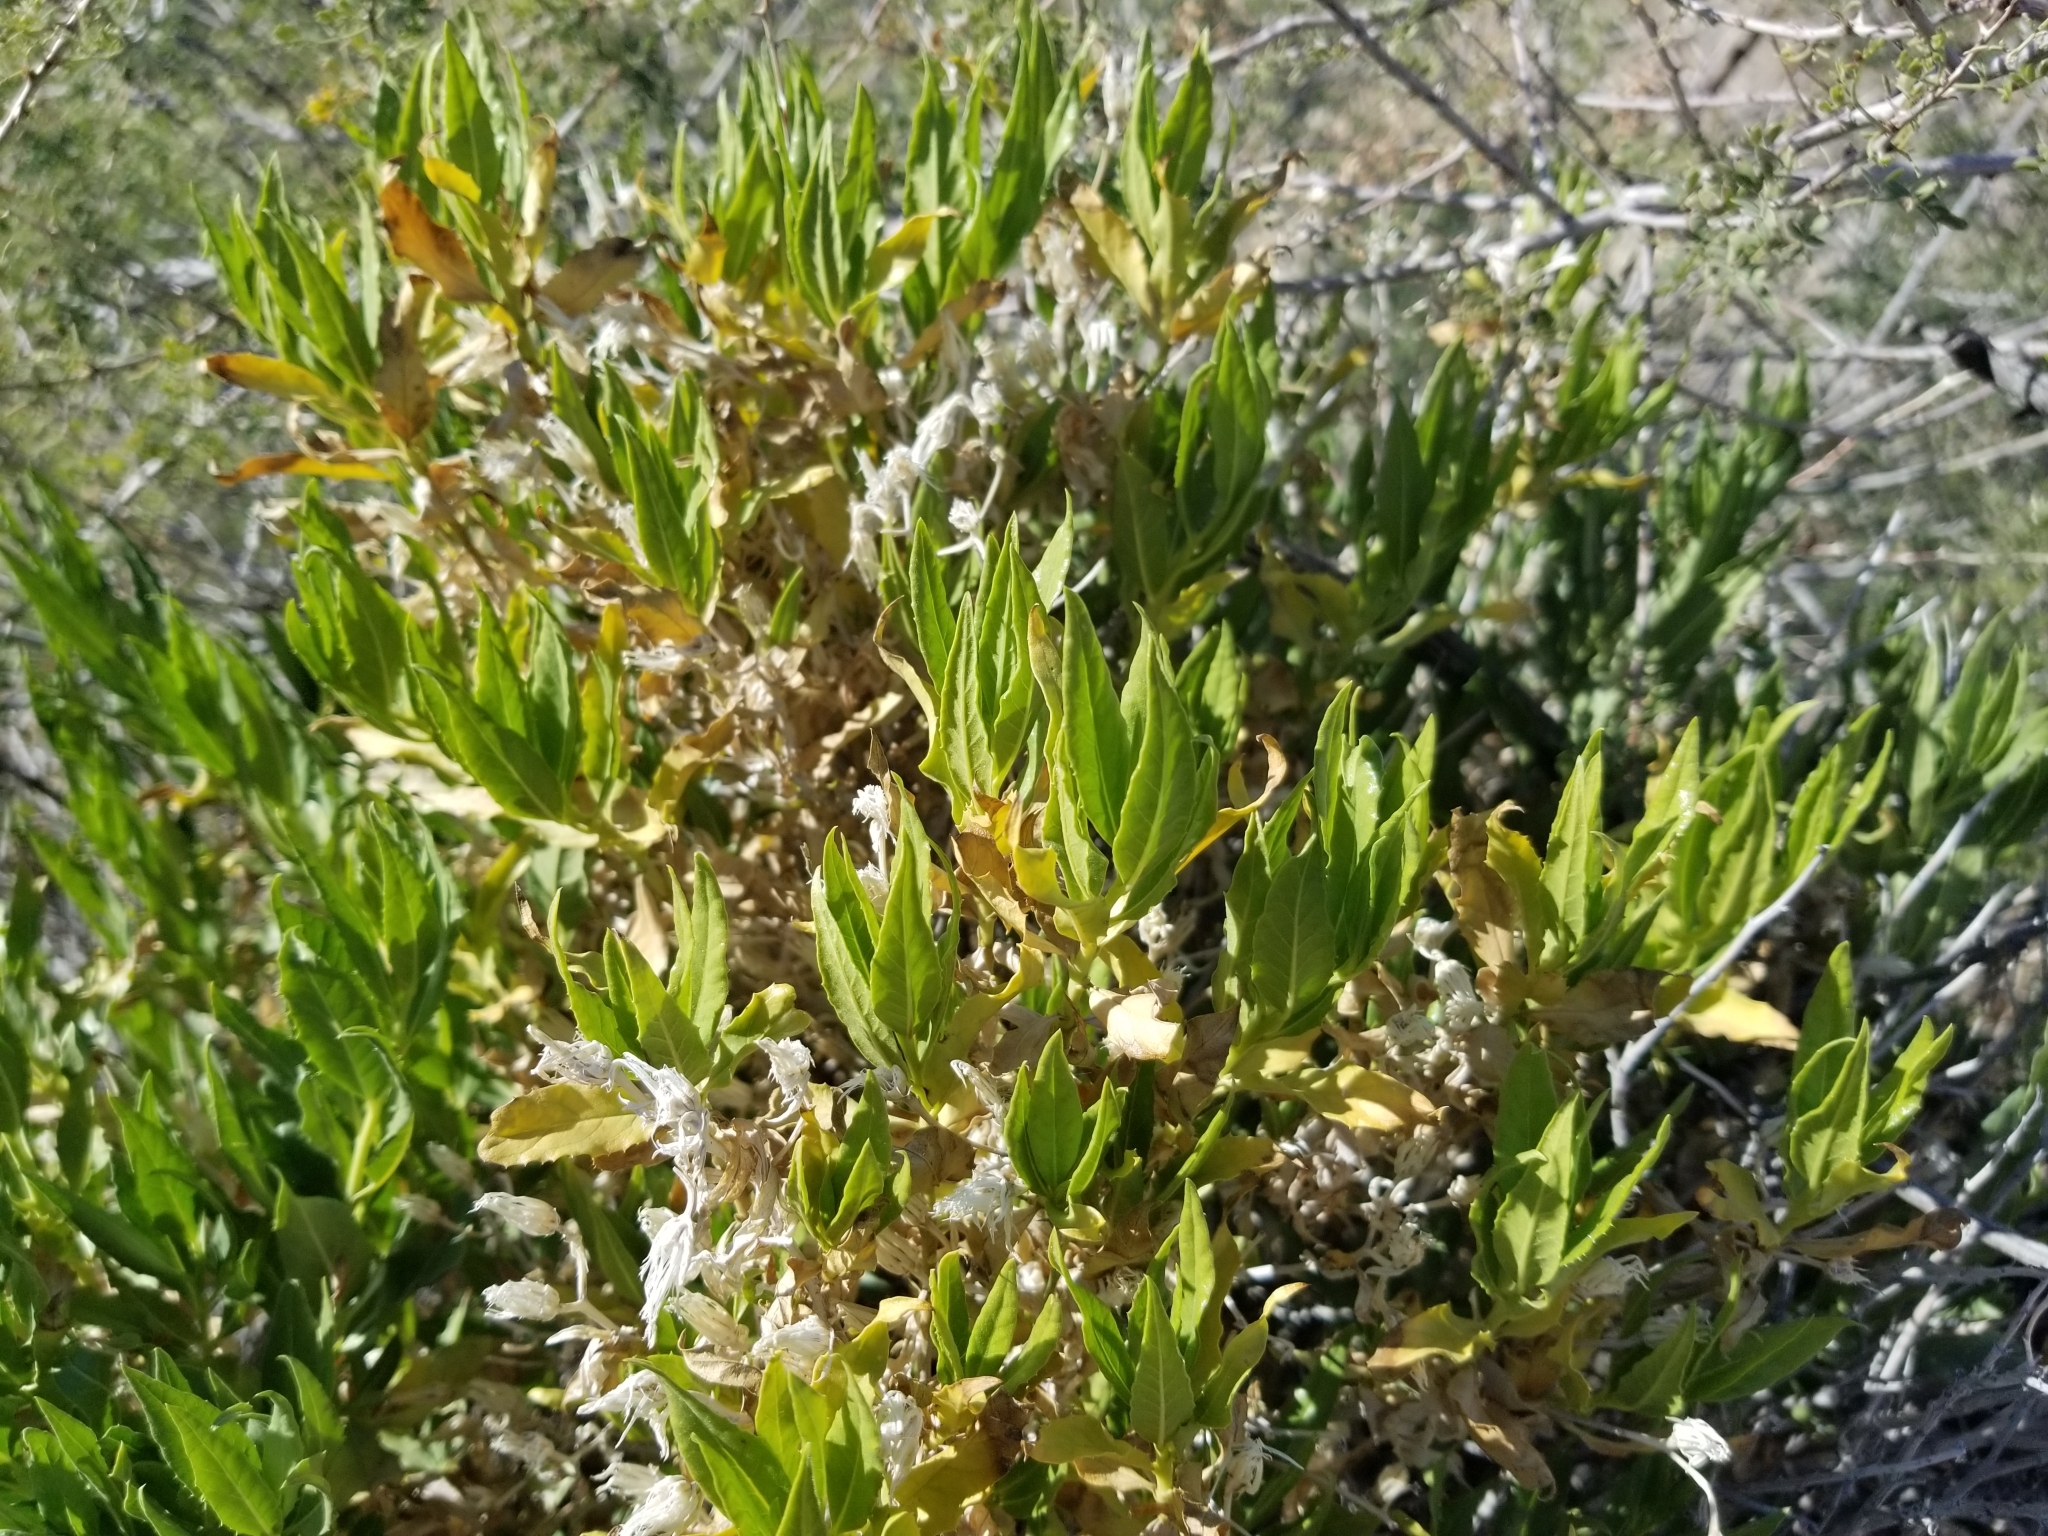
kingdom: Plantae
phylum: Tracheophyta
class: Magnoliopsida
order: Asterales
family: Asteraceae
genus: Trixis
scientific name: Trixis californica
